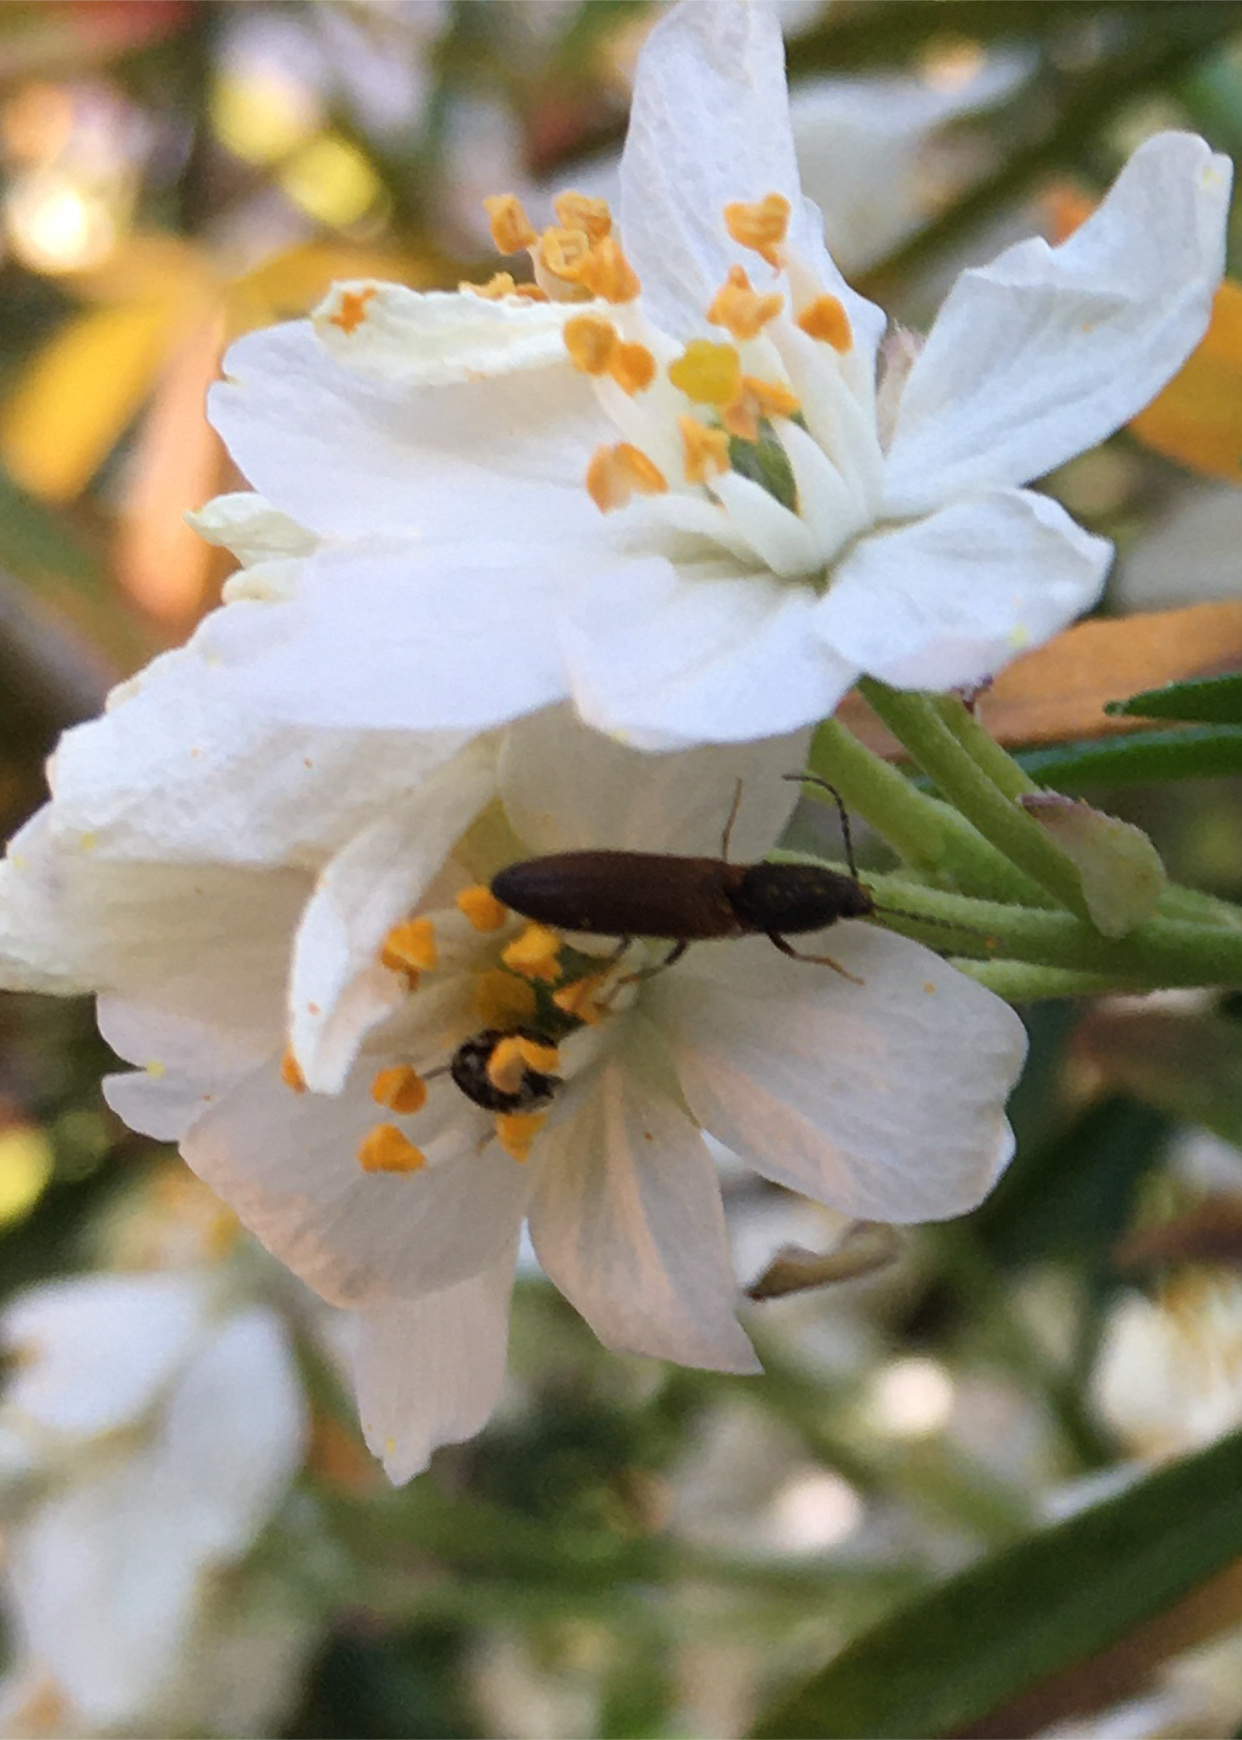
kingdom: Animalia
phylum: Arthropoda
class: Insecta
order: Coleoptera
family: Elateridae
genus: Dolerosomus
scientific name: Dolerosomus silaceus
